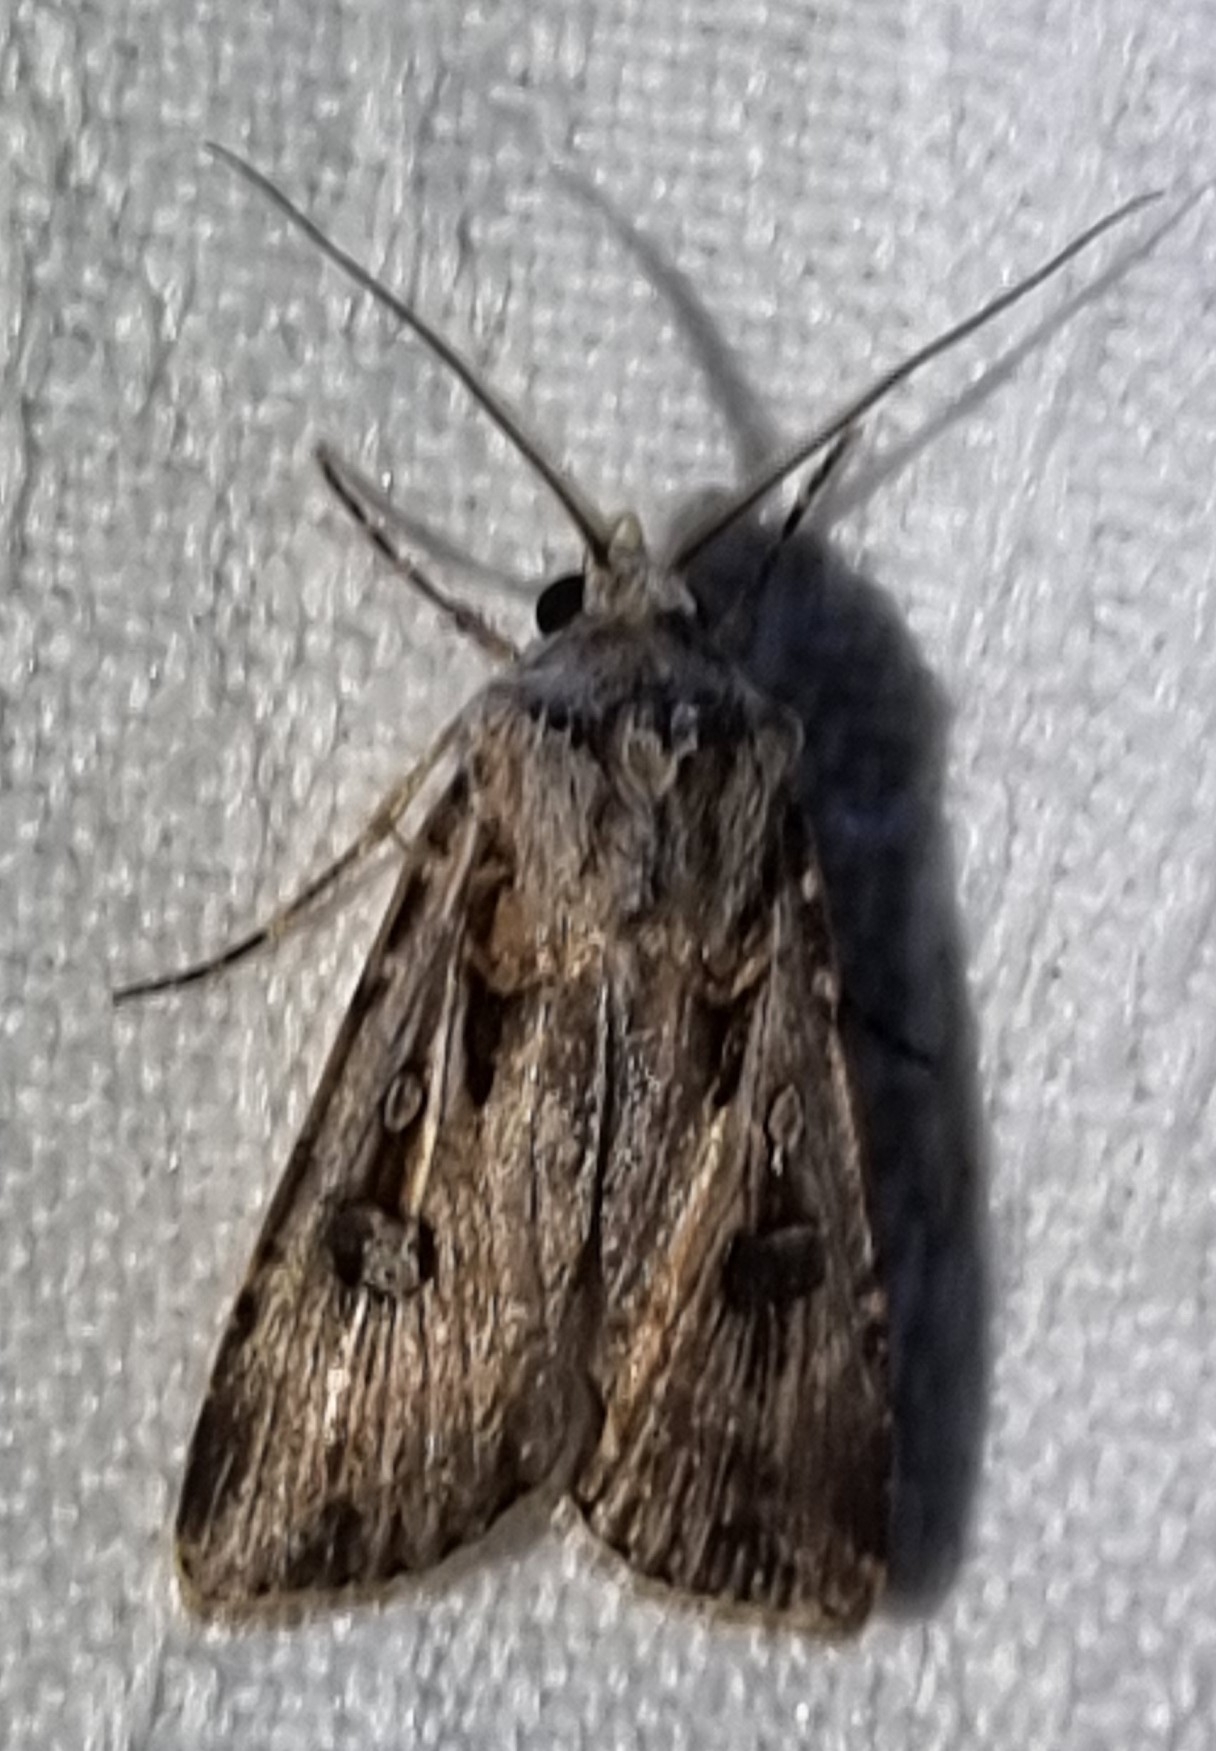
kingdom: Animalia
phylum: Arthropoda
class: Insecta
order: Lepidoptera
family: Noctuidae
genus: Agrotis
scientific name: Agrotis munda
